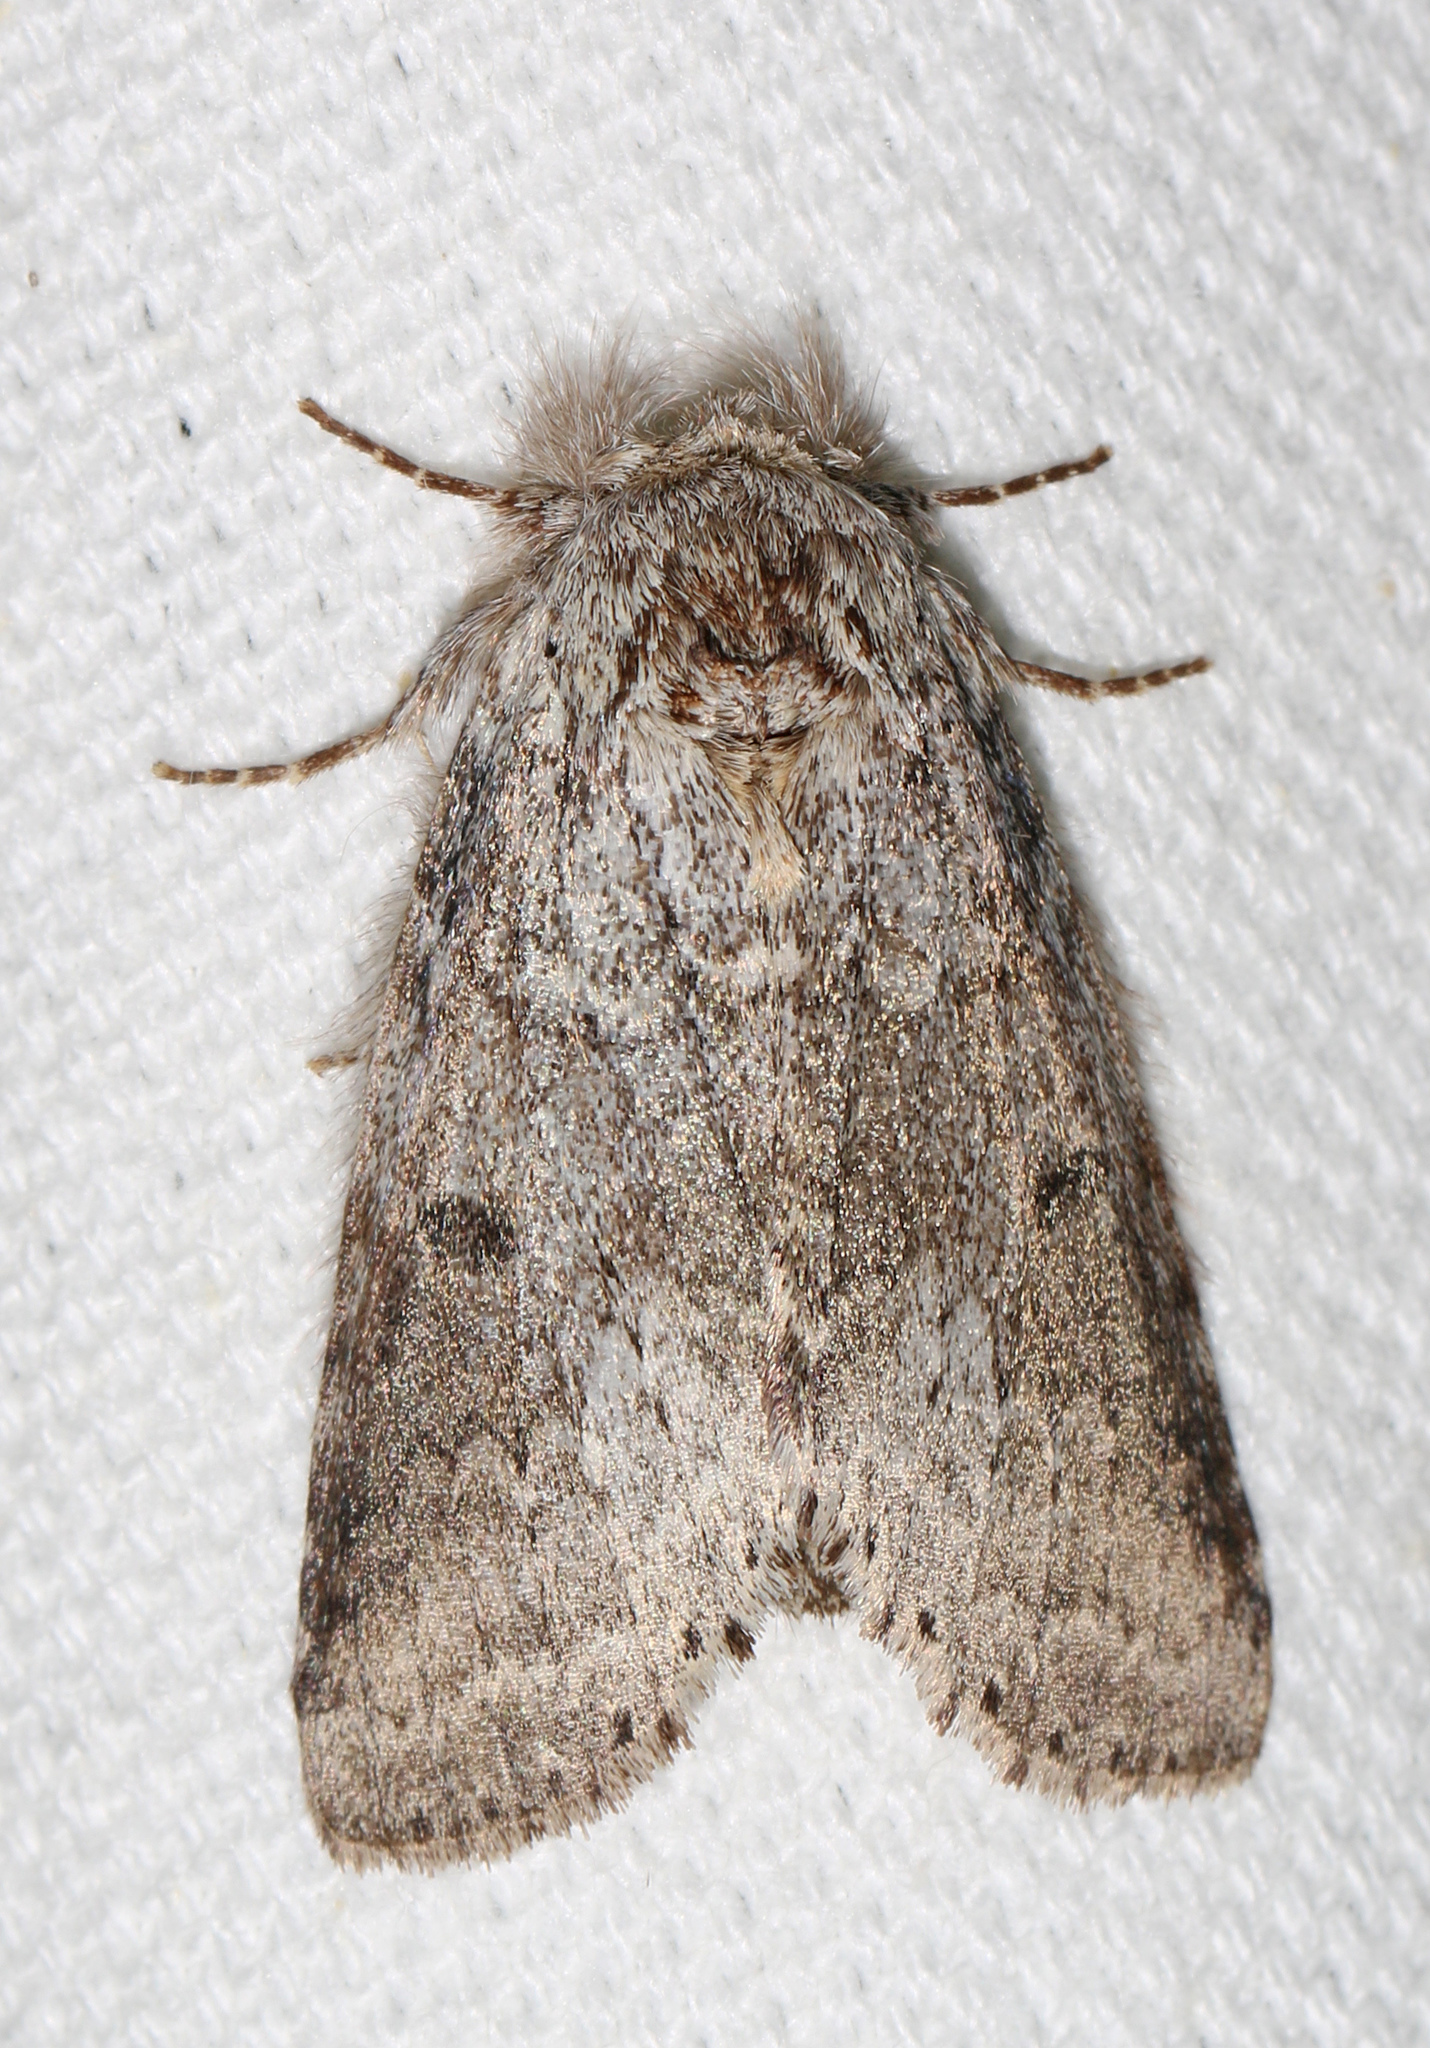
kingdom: Animalia
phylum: Arthropoda
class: Insecta
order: Lepidoptera
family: Notodontidae
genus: Lochmaeus
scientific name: Lochmaeus manteo
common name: Variable oakleaf caterpillar moth
